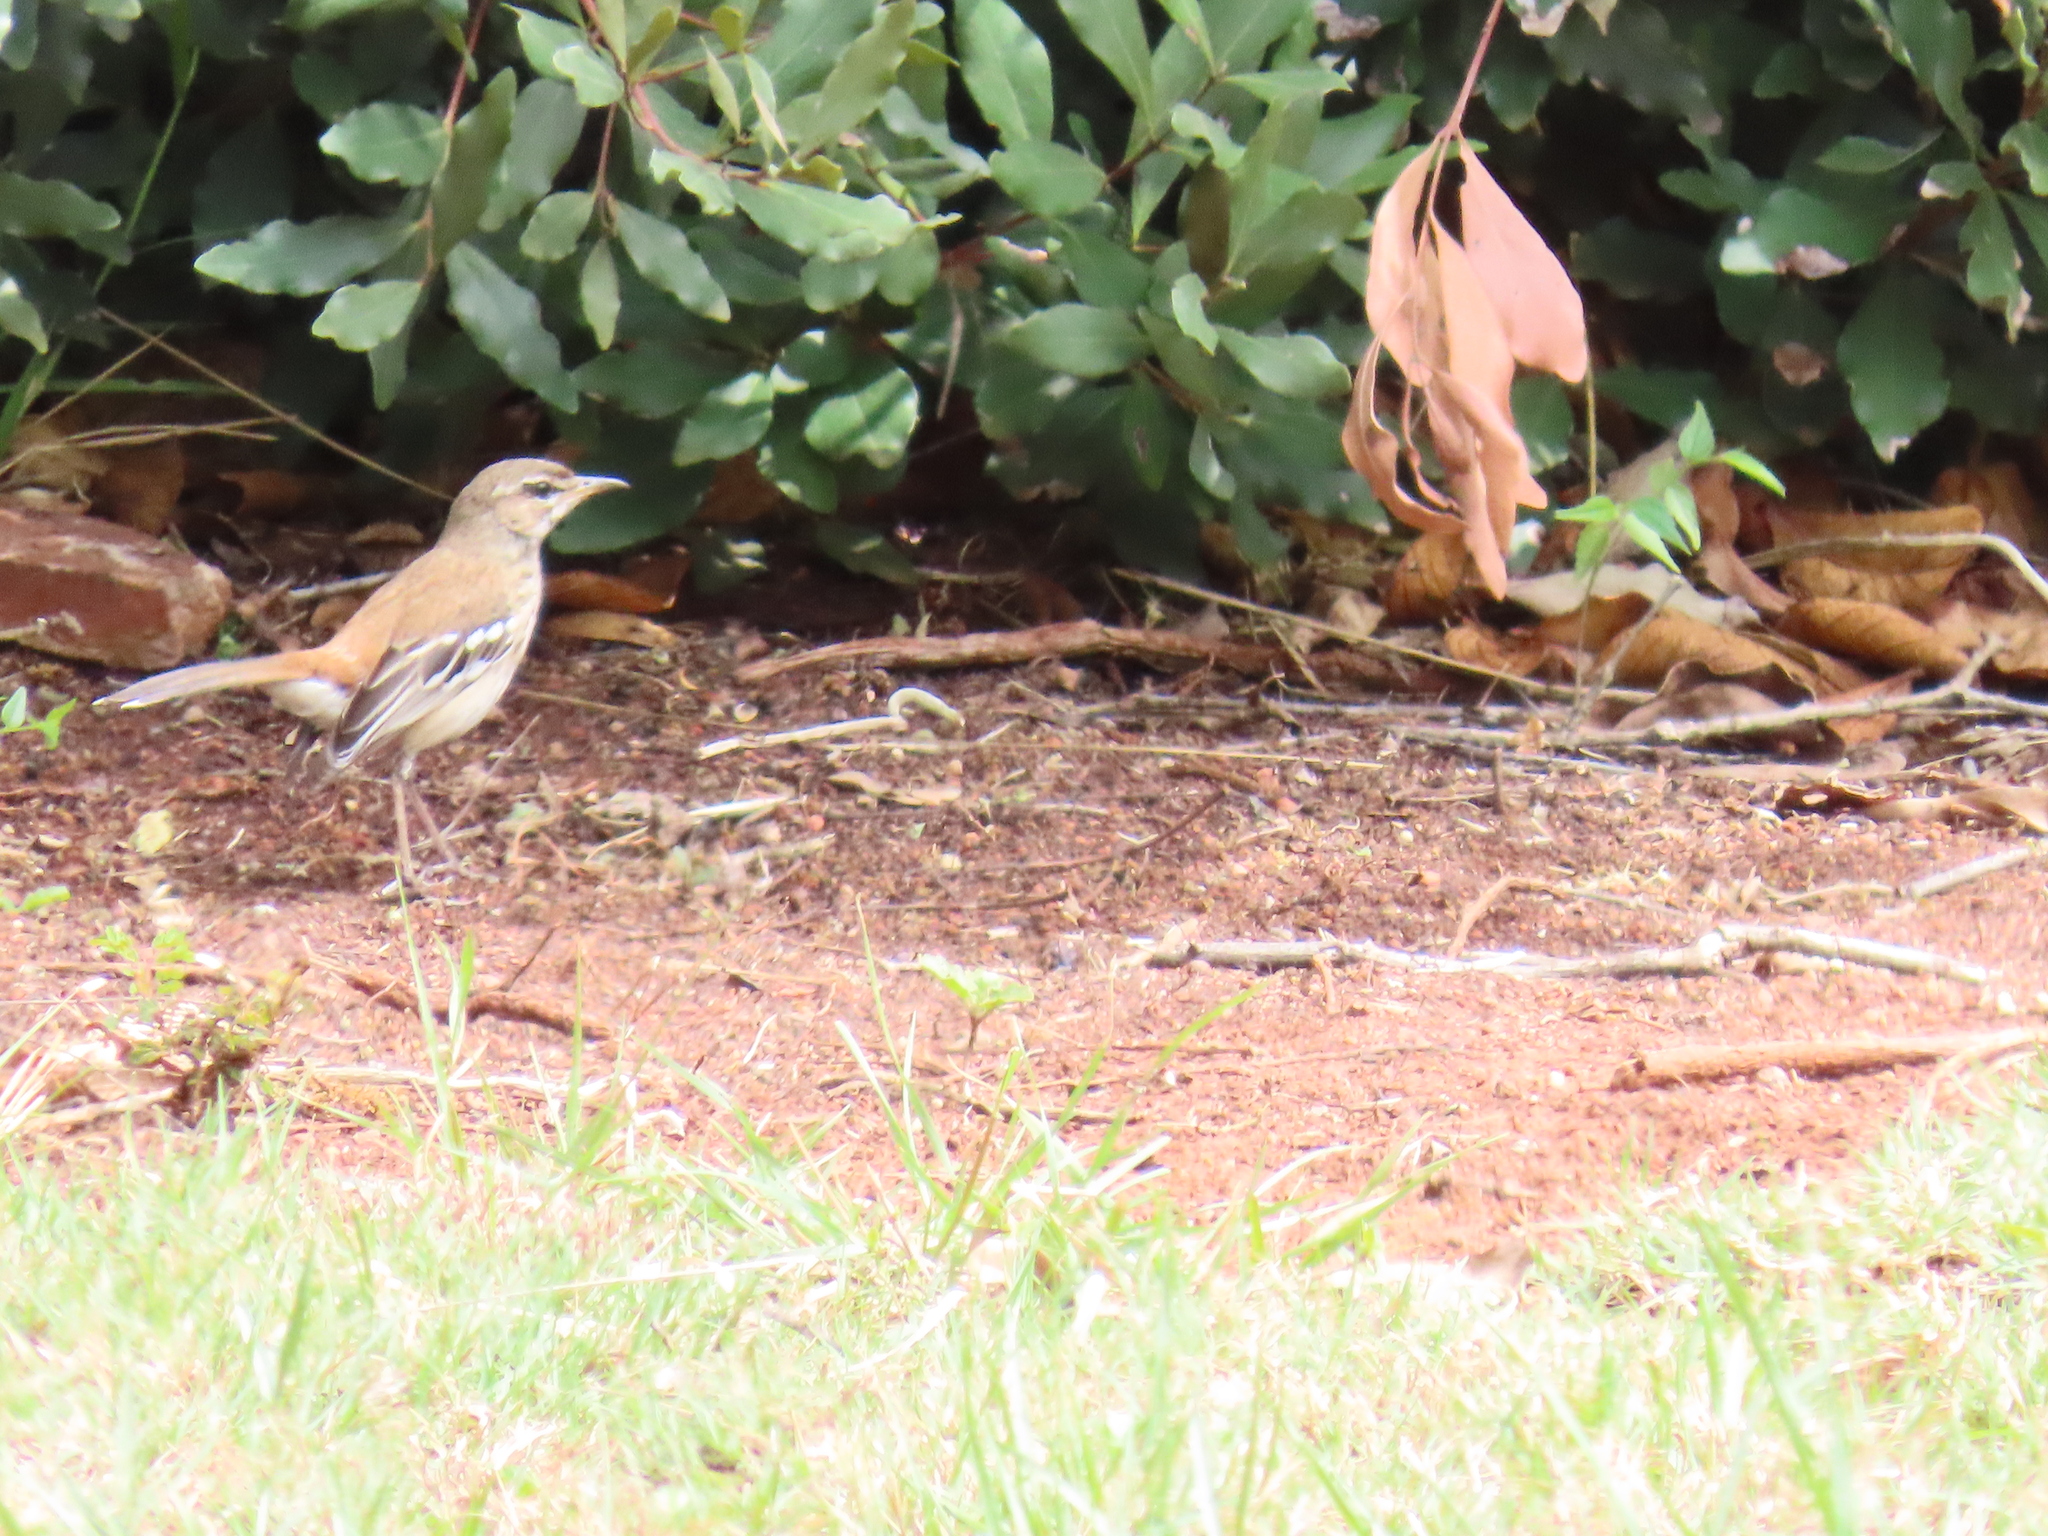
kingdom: Animalia
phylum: Chordata
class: Aves
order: Passeriformes
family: Muscicapidae
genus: Erythropygia
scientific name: Erythropygia leucophrys
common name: White-browed scrub robin
